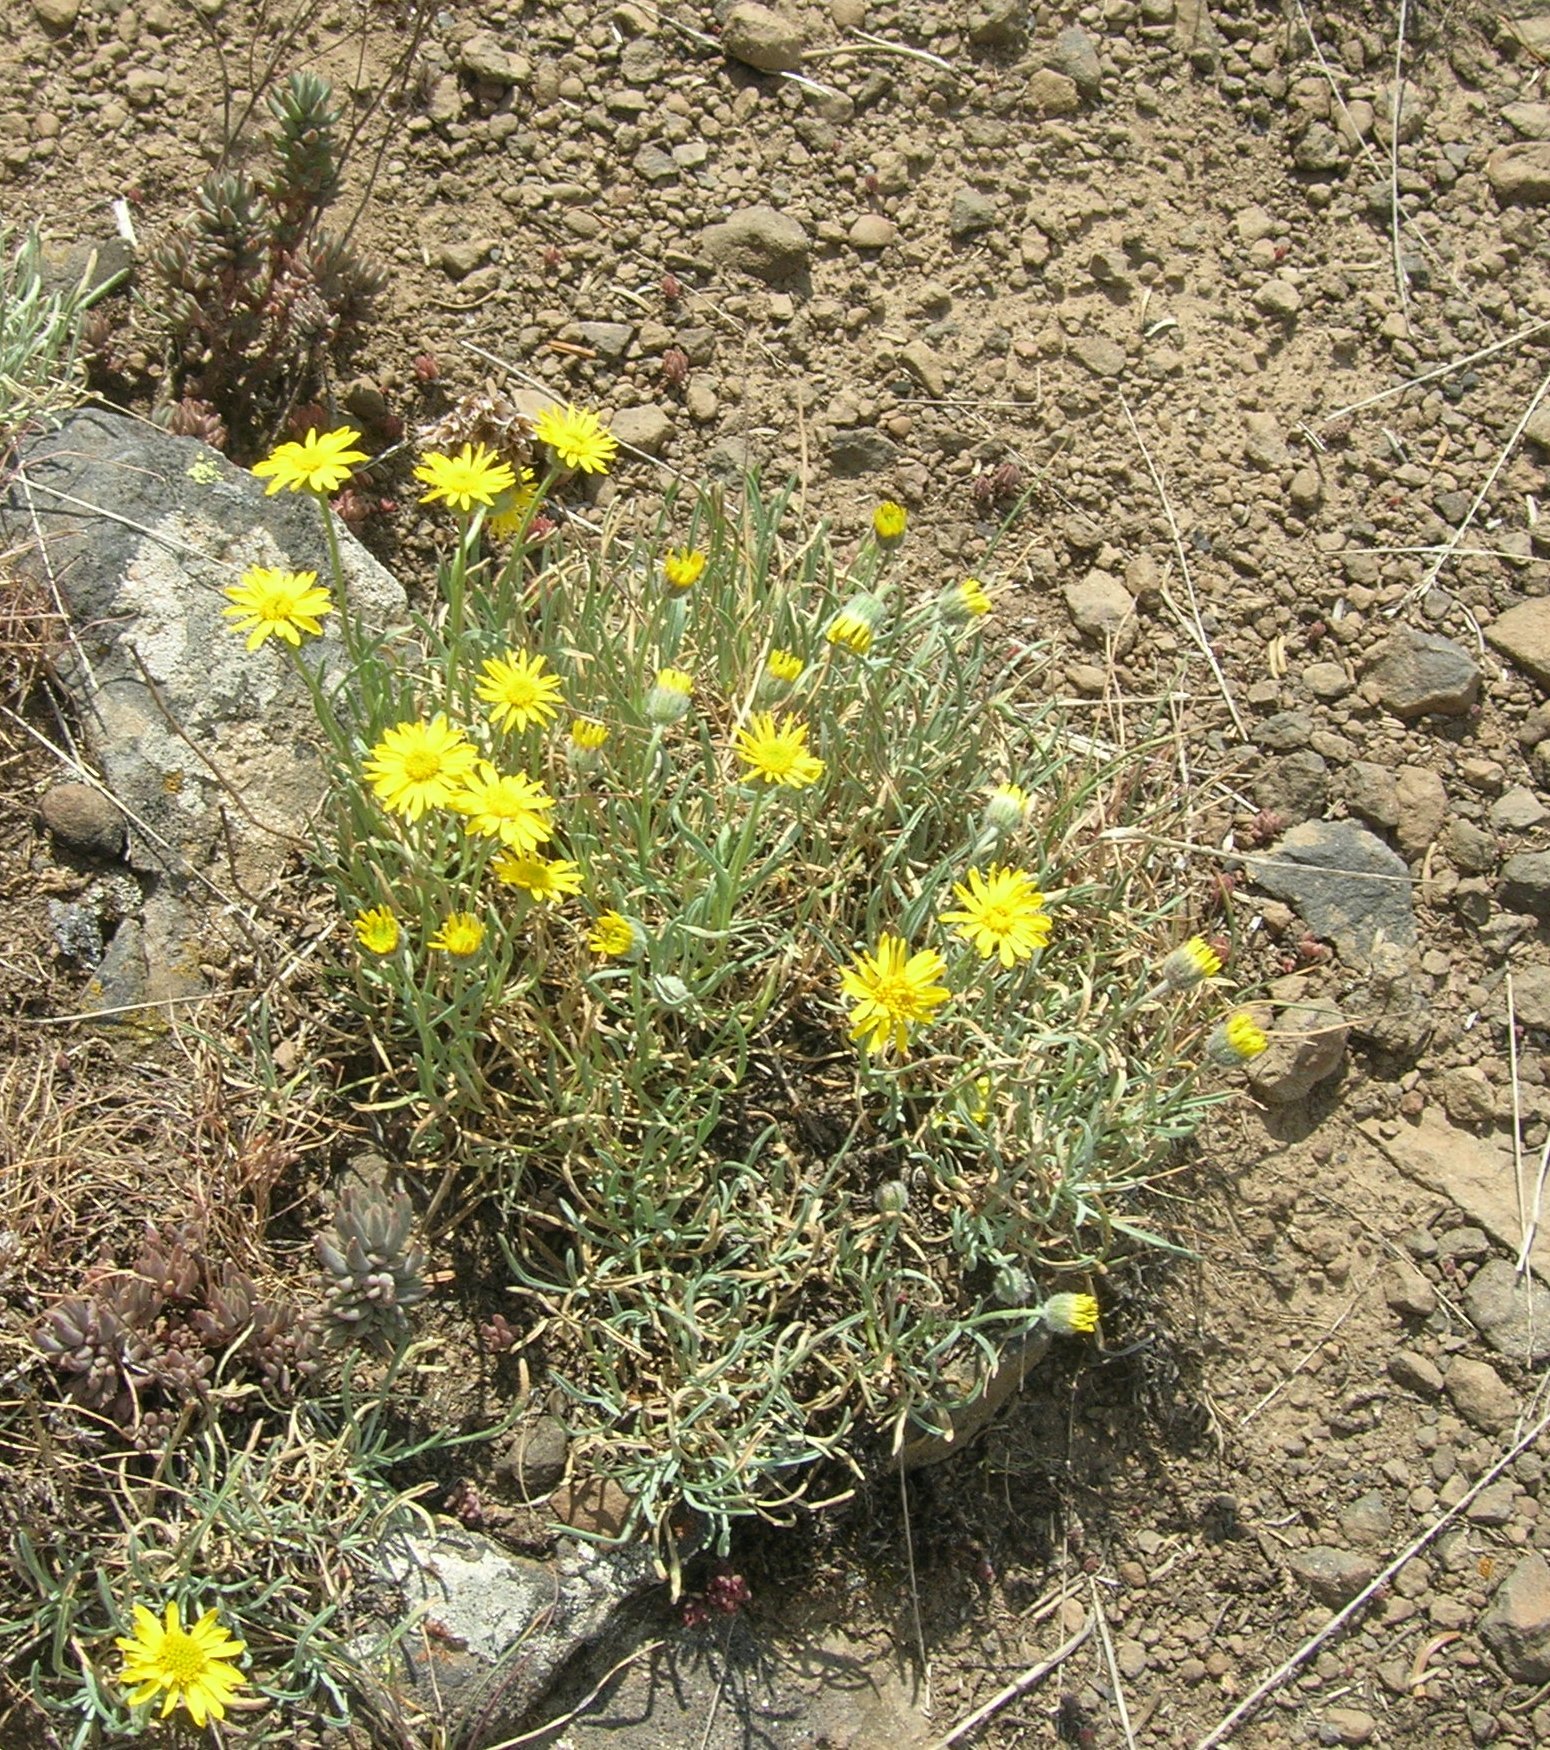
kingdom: Plantae
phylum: Tracheophyta
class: Magnoliopsida
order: Asterales
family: Asteraceae
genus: Erigeron
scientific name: Erigeron linearis
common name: Desert yellow fleabane
